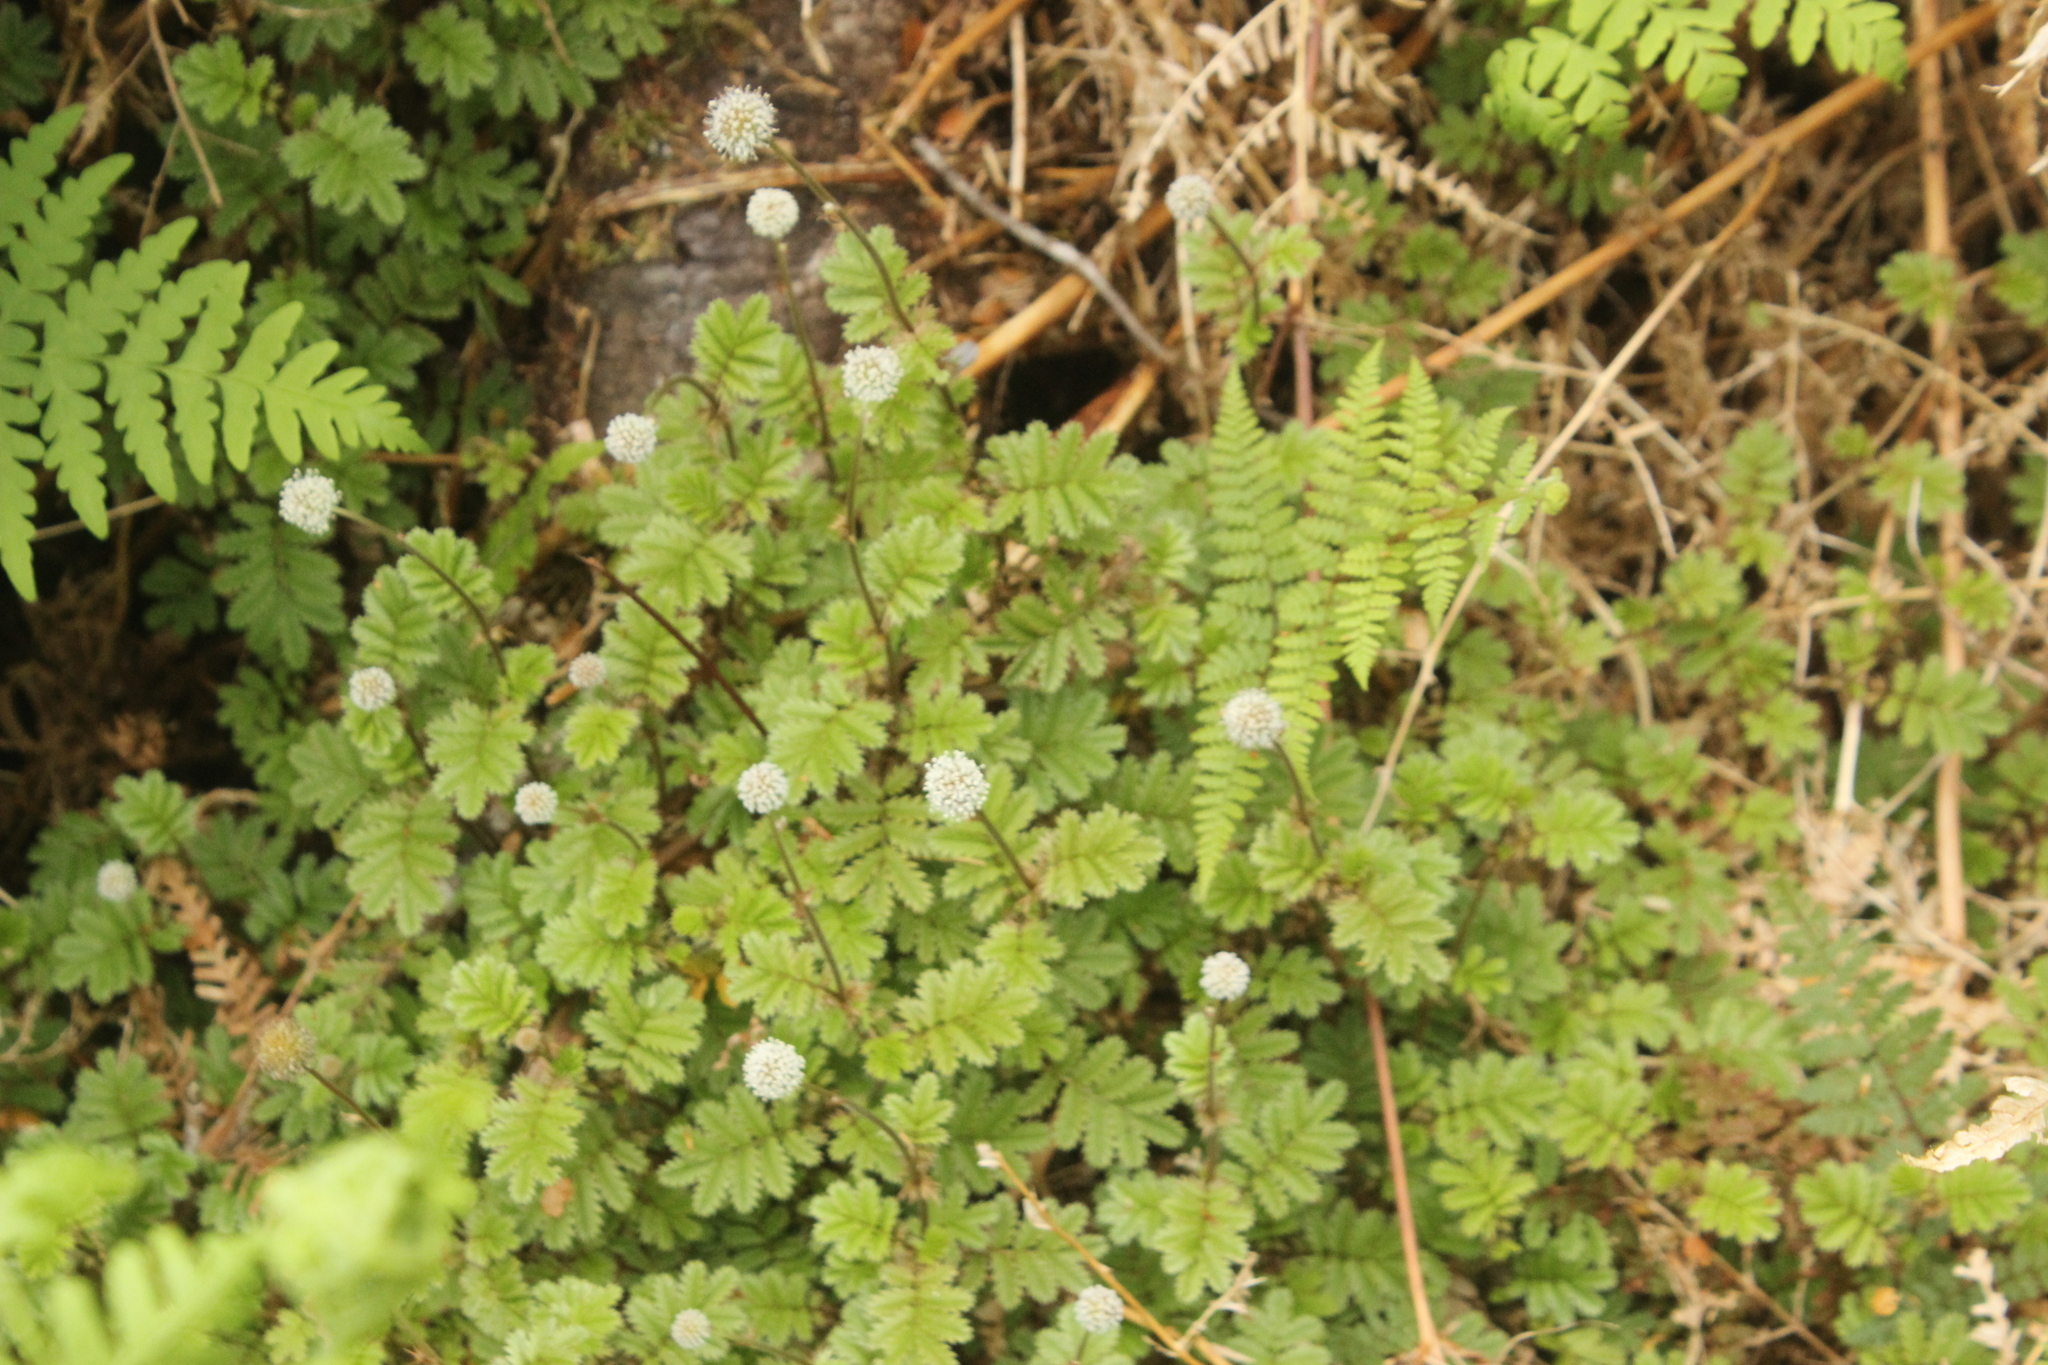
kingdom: Plantae
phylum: Tracheophyta
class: Magnoliopsida
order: Rosales
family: Rosaceae
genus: Acaena
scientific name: Acaena anserinifolia
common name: Bronze pirri-pirri-bur
